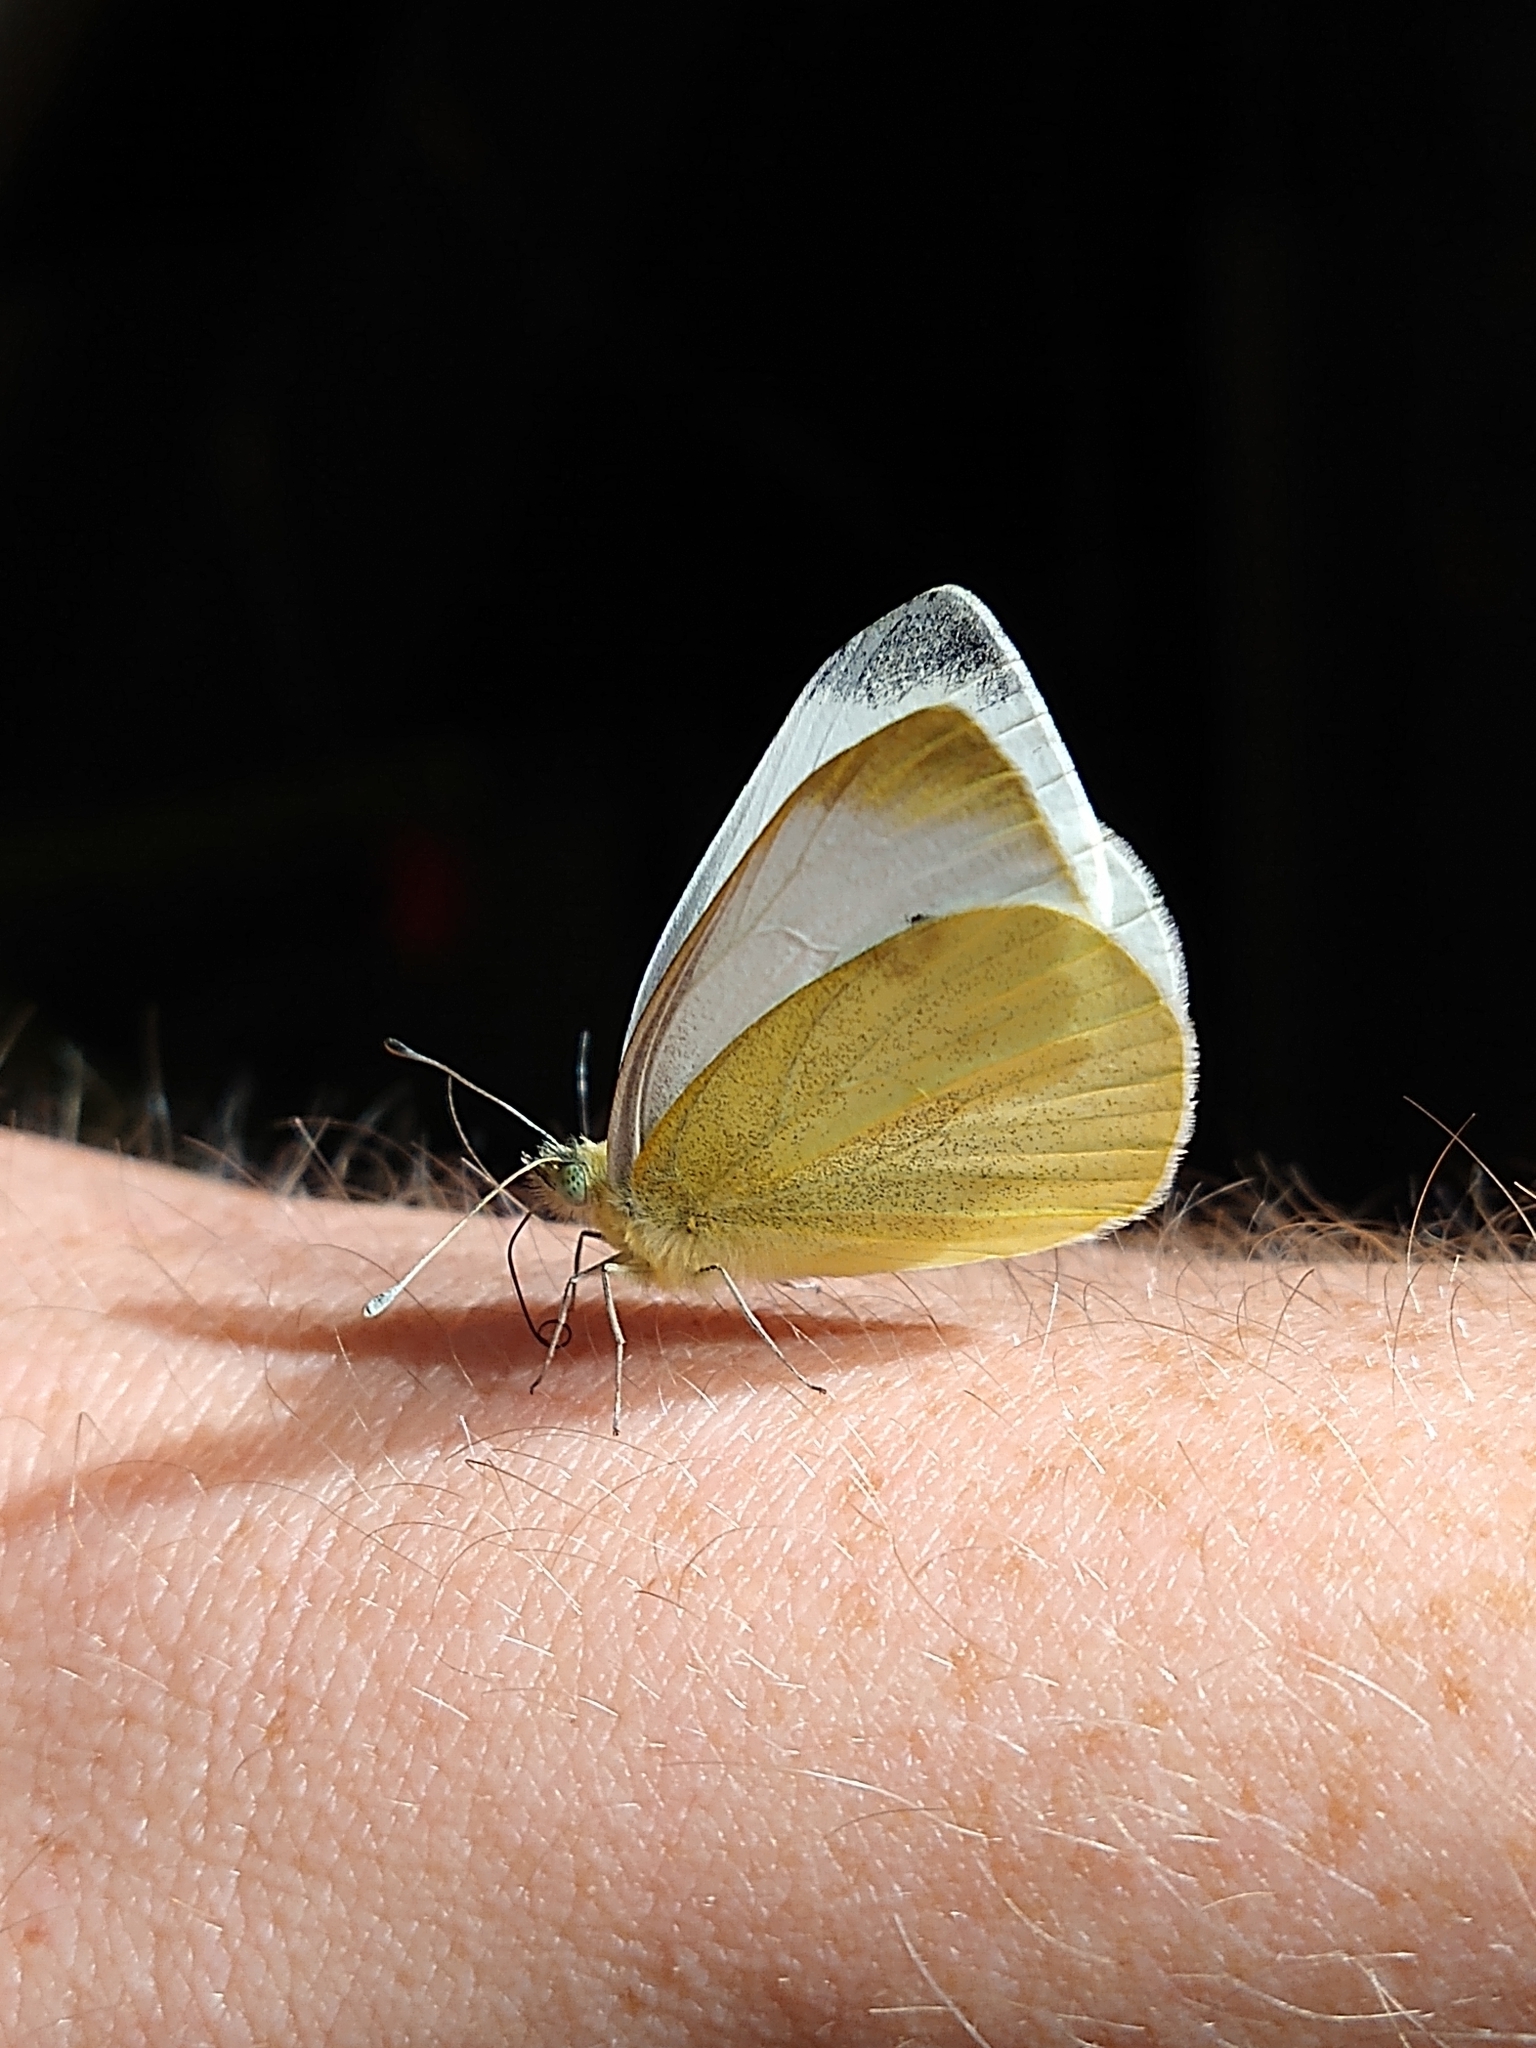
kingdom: Animalia
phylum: Arthropoda
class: Insecta
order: Lepidoptera
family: Pieridae
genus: Pieris
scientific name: Pieris rapae
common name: Small white
